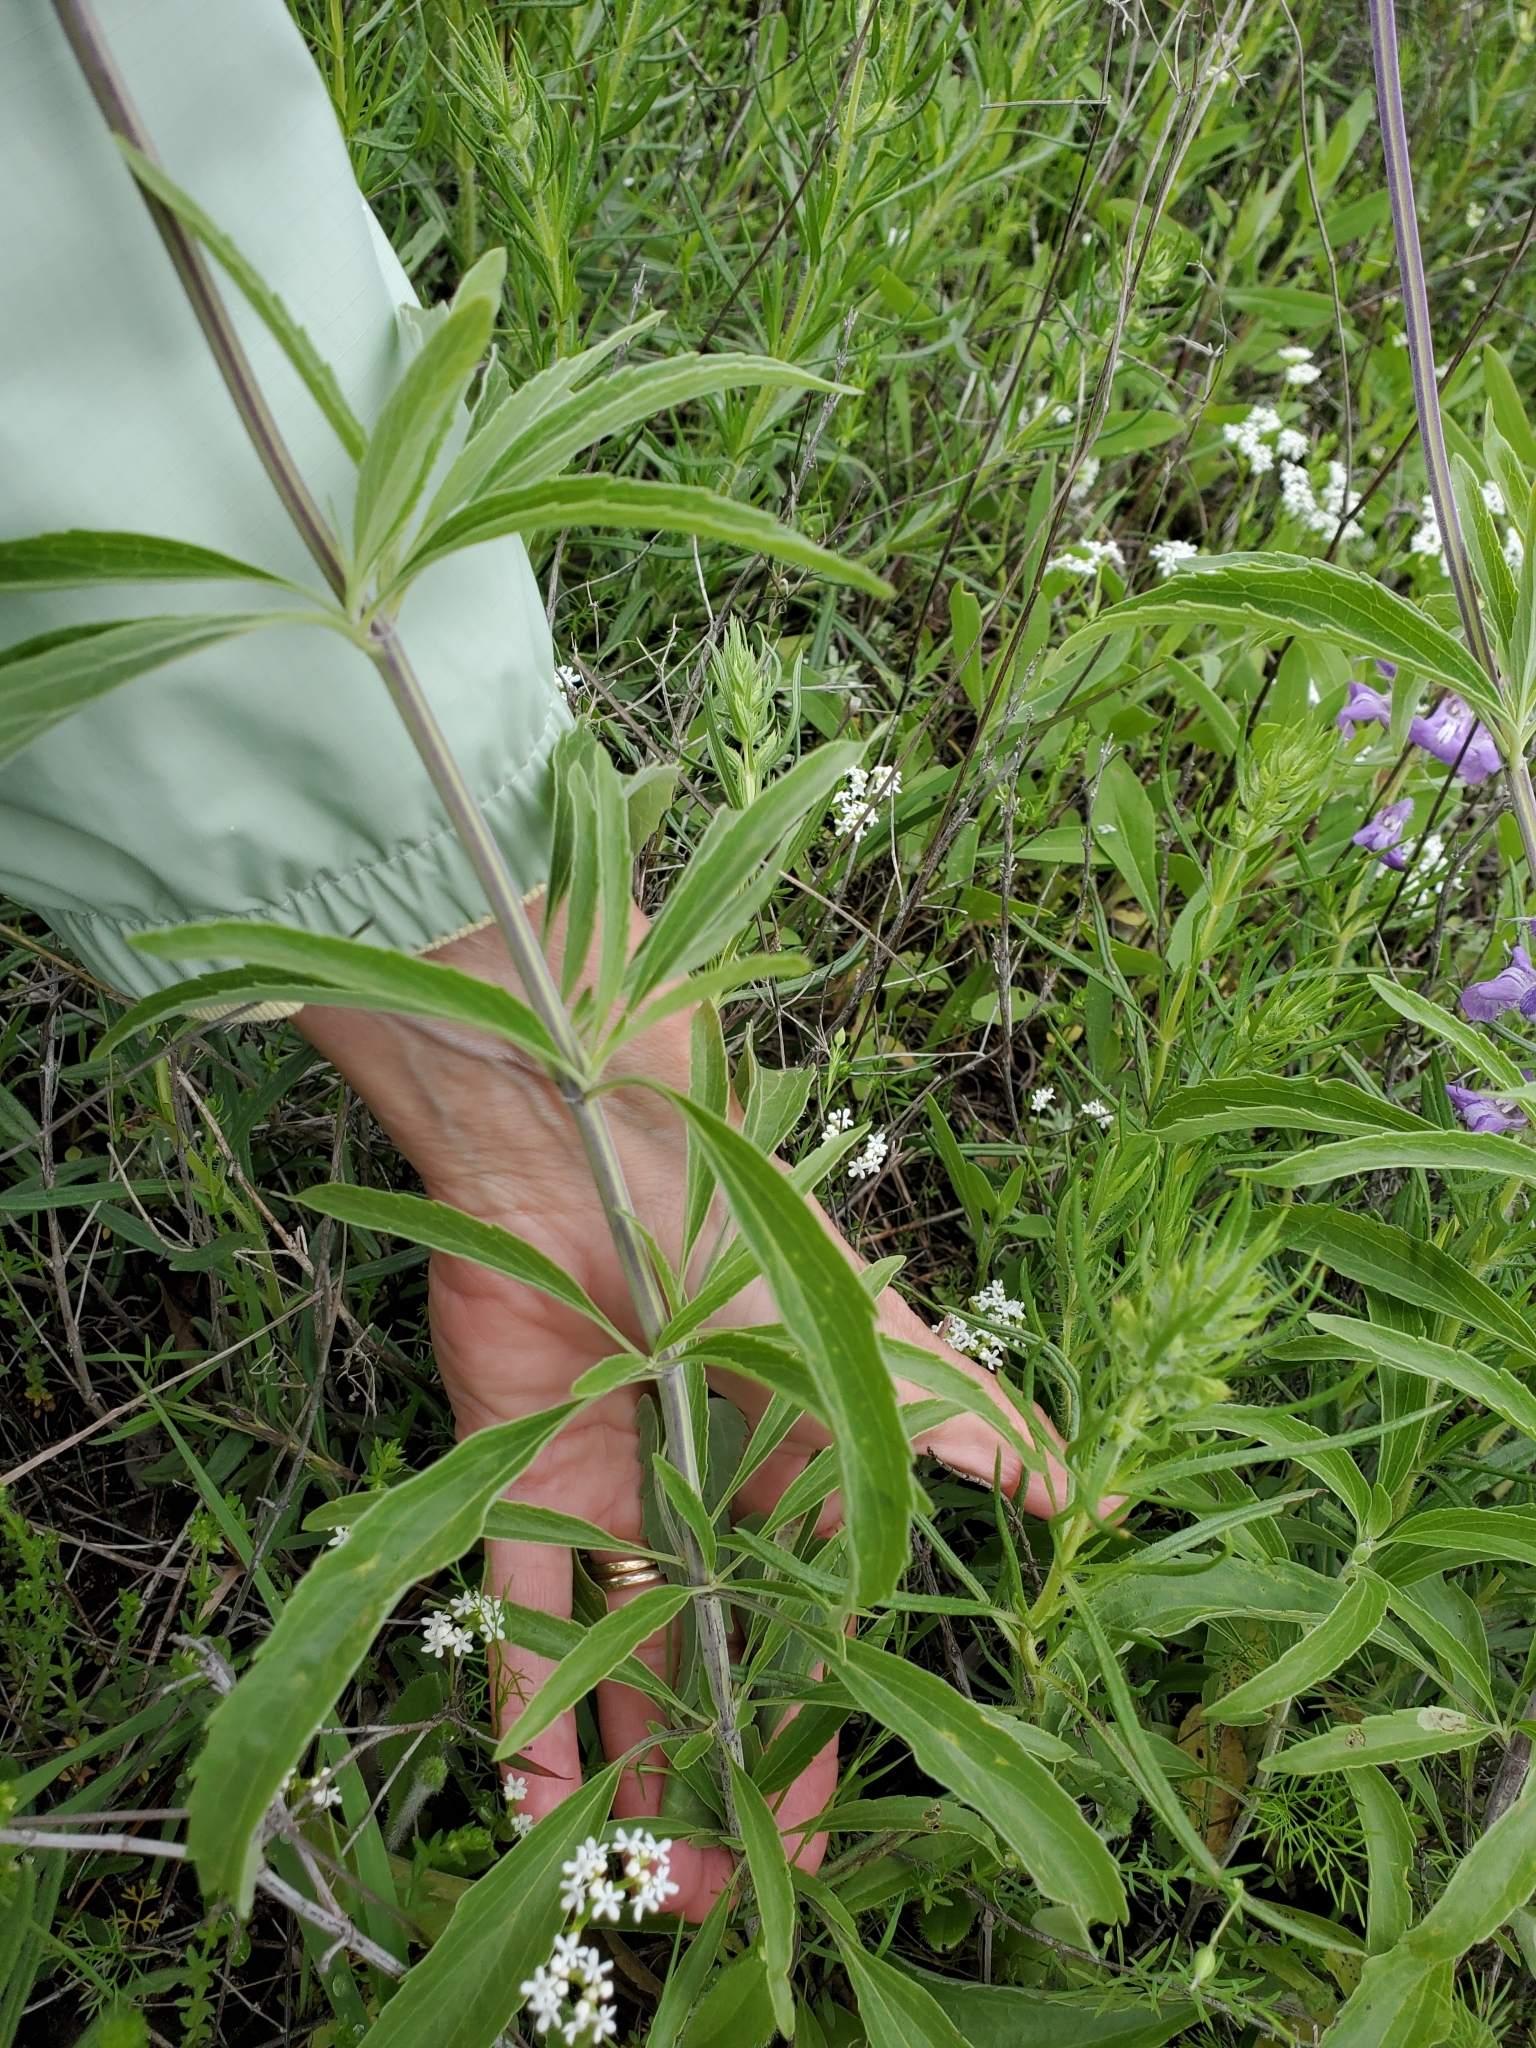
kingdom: Plantae
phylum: Tracheophyta
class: Magnoliopsida
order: Lamiales
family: Lamiaceae
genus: Salvia
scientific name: Salvia farinacea
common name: Mealy sage
